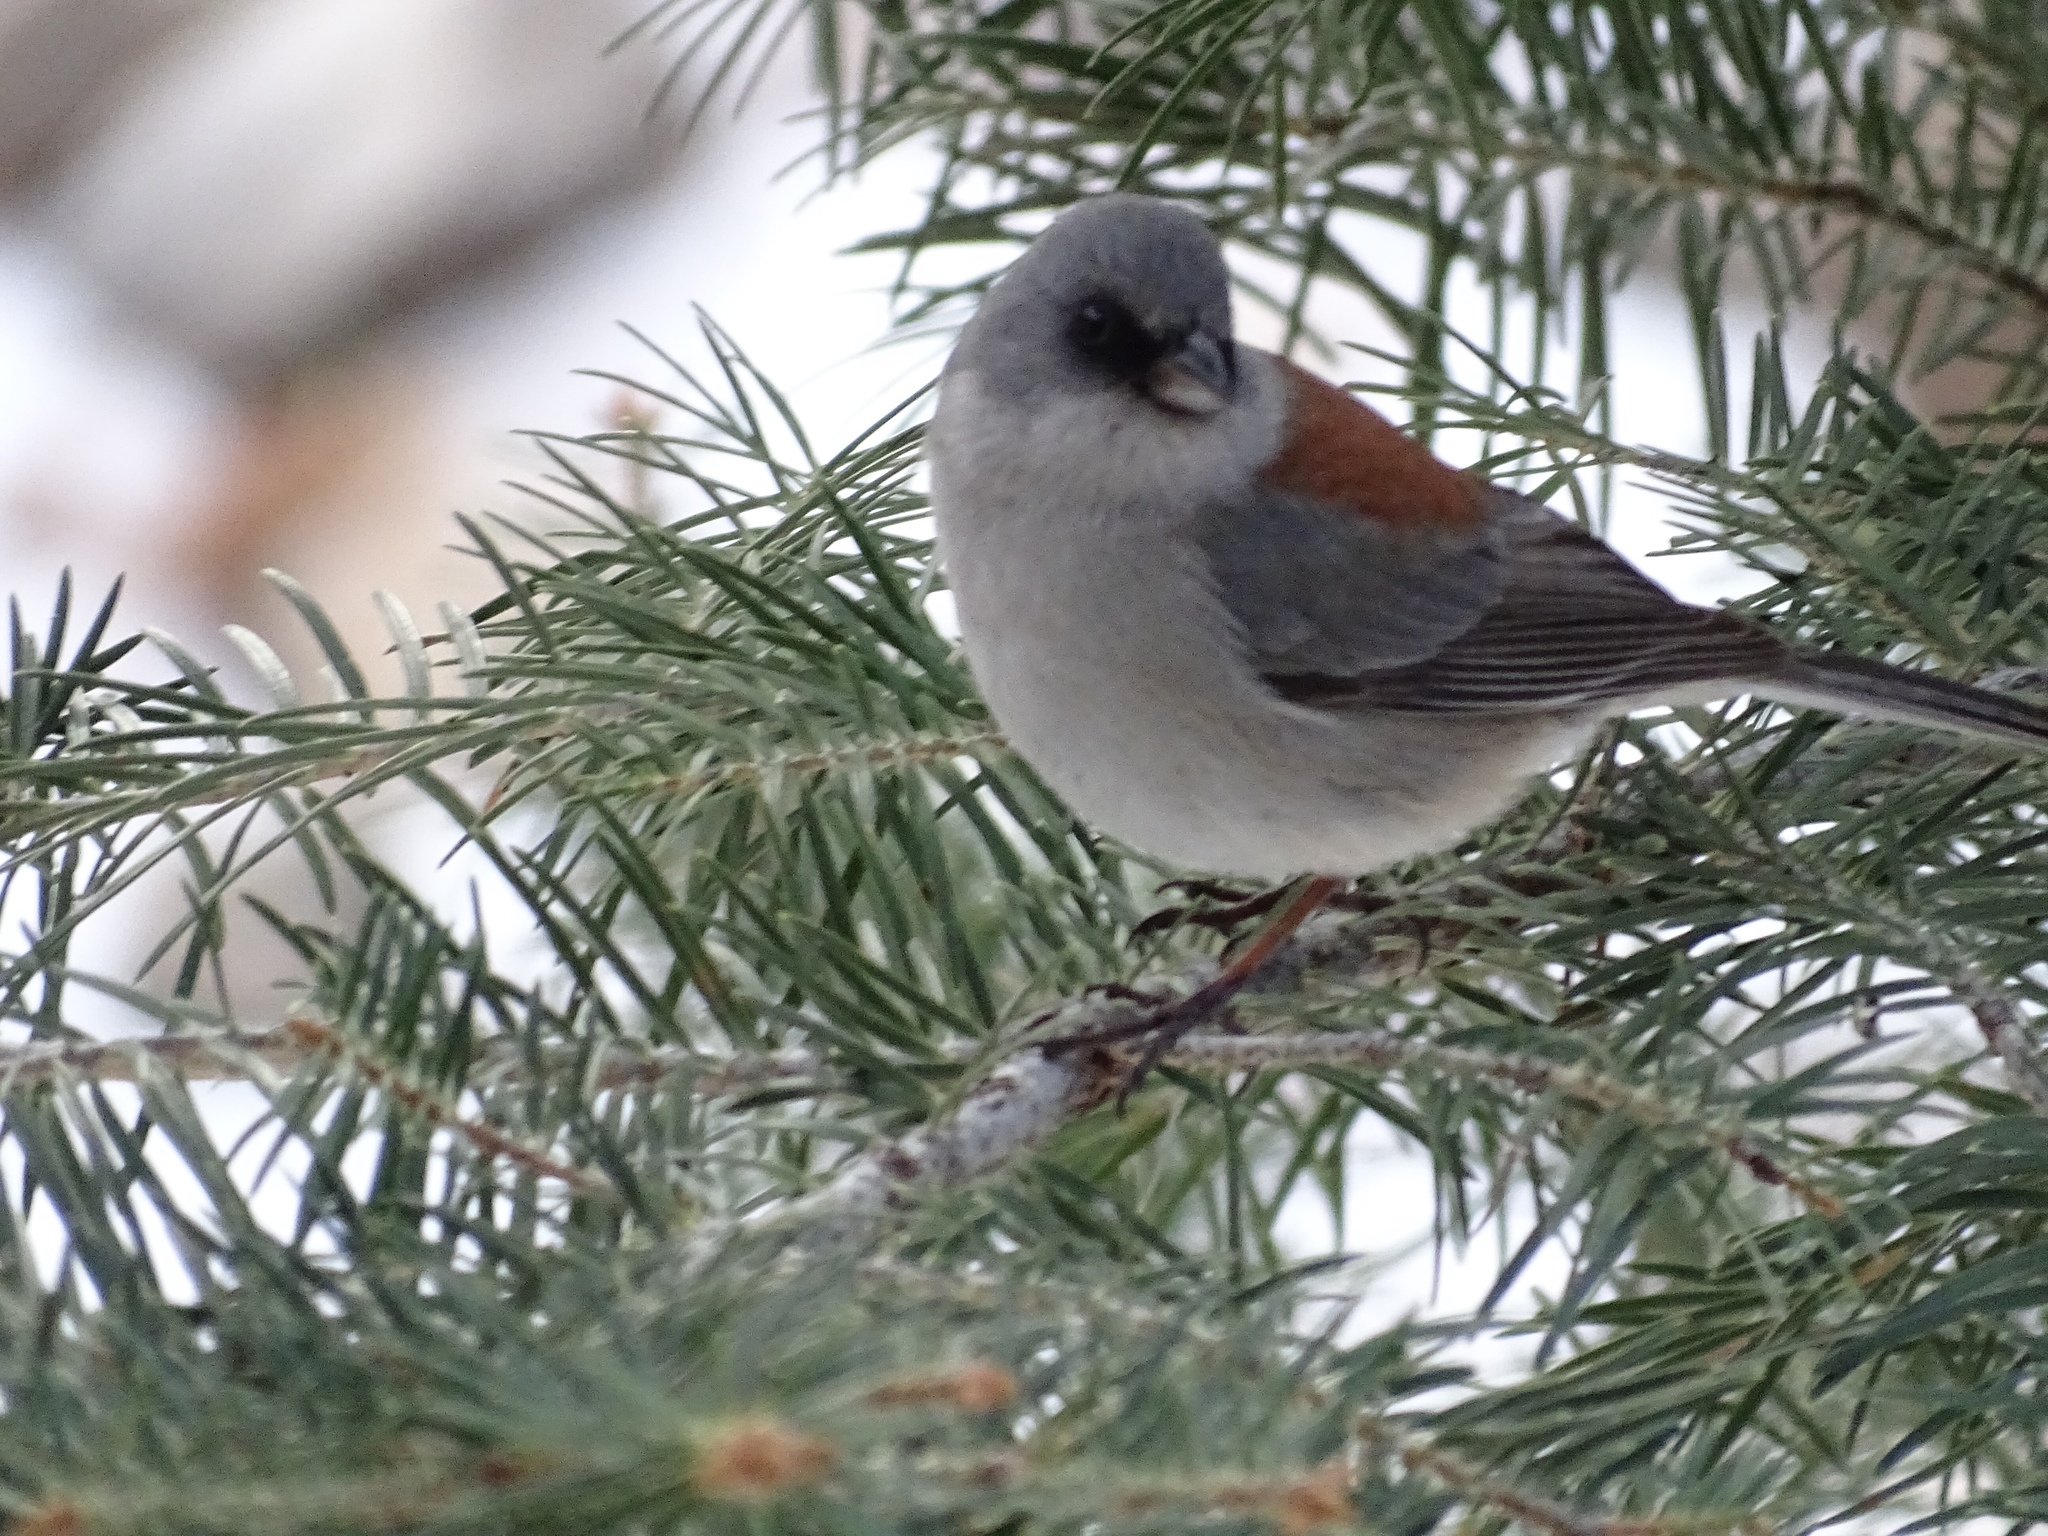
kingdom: Animalia
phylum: Chordata
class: Aves
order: Passeriformes
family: Passerellidae
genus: Junco
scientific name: Junco hyemalis
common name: Dark-eyed junco
